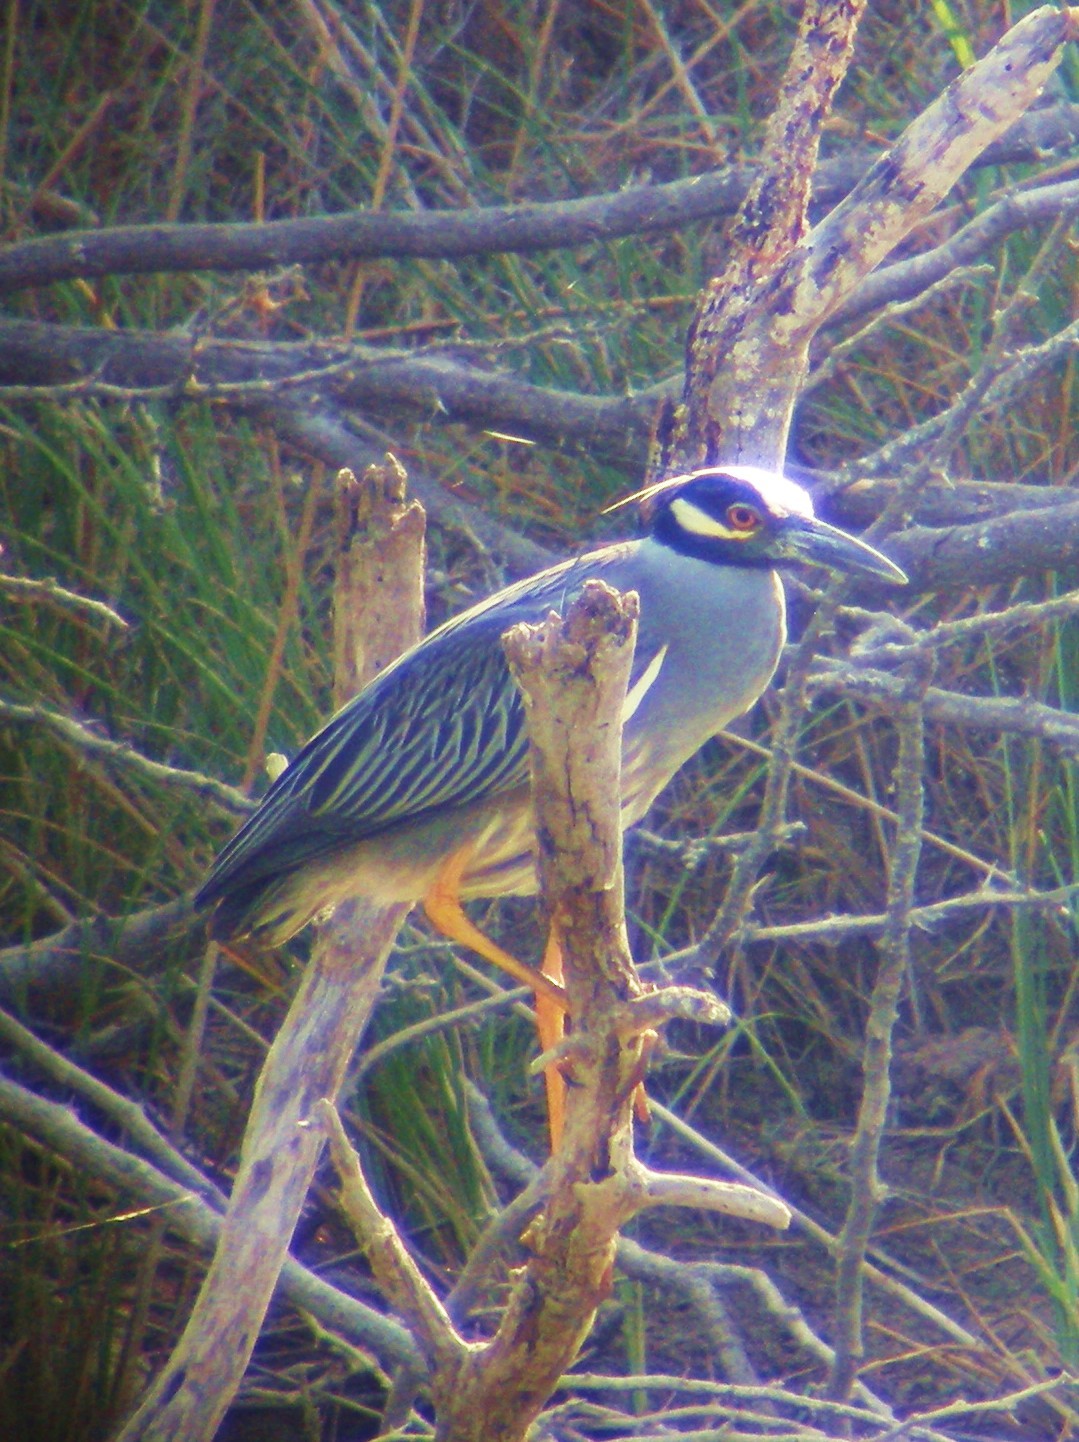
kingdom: Animalia
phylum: Chordata
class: Aves
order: Pelecaniformes
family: Ardeidae
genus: Nyctanassa
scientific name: Nyctanassa violacea
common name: Yellow-crowned night heron
